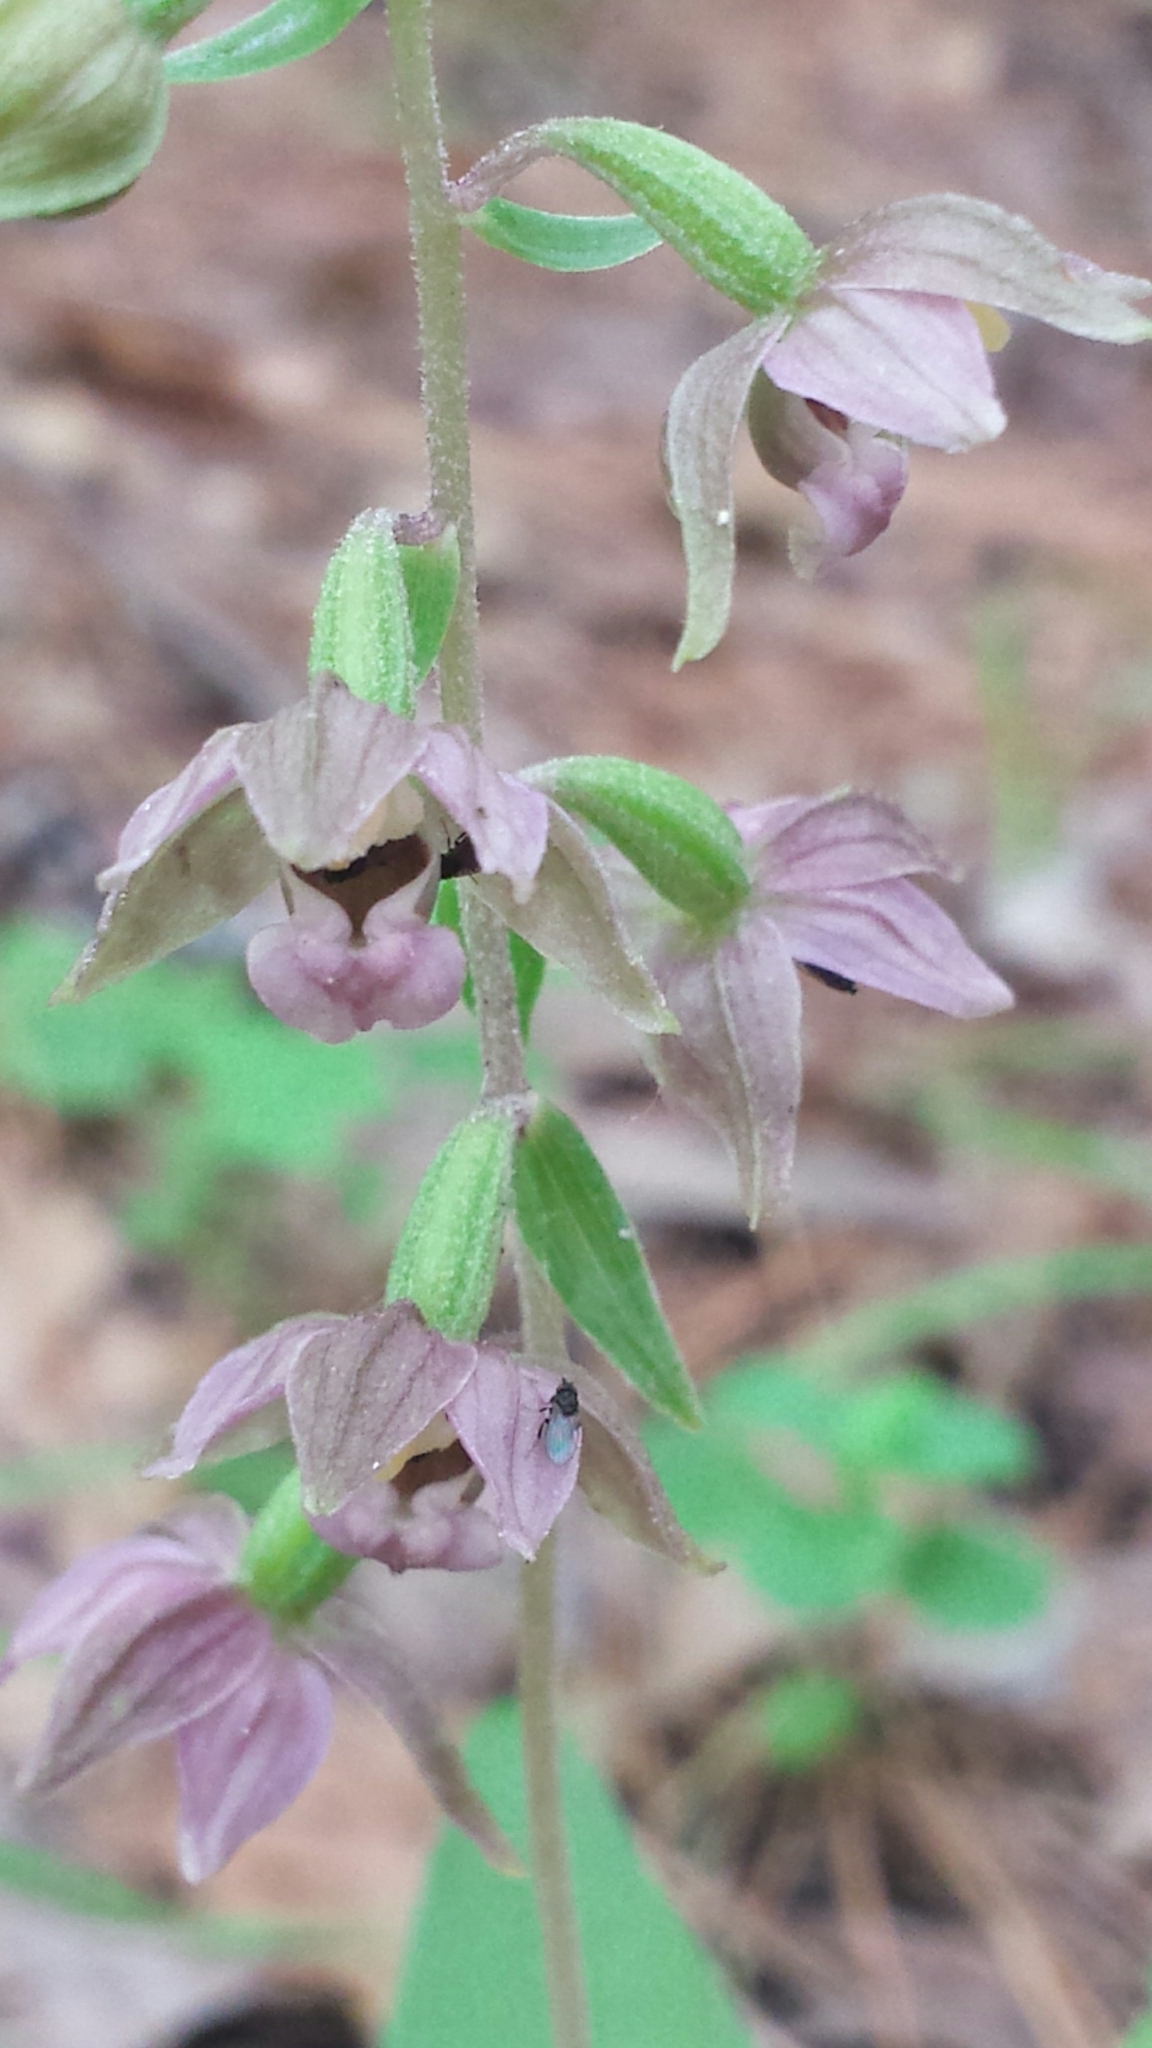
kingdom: Plantae
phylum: Tracheophyta
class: Liliopsida
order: Asparagales
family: Orchidaceae
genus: Epipactis
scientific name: Epipactis helleborine
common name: Broad-leaved helleborine
